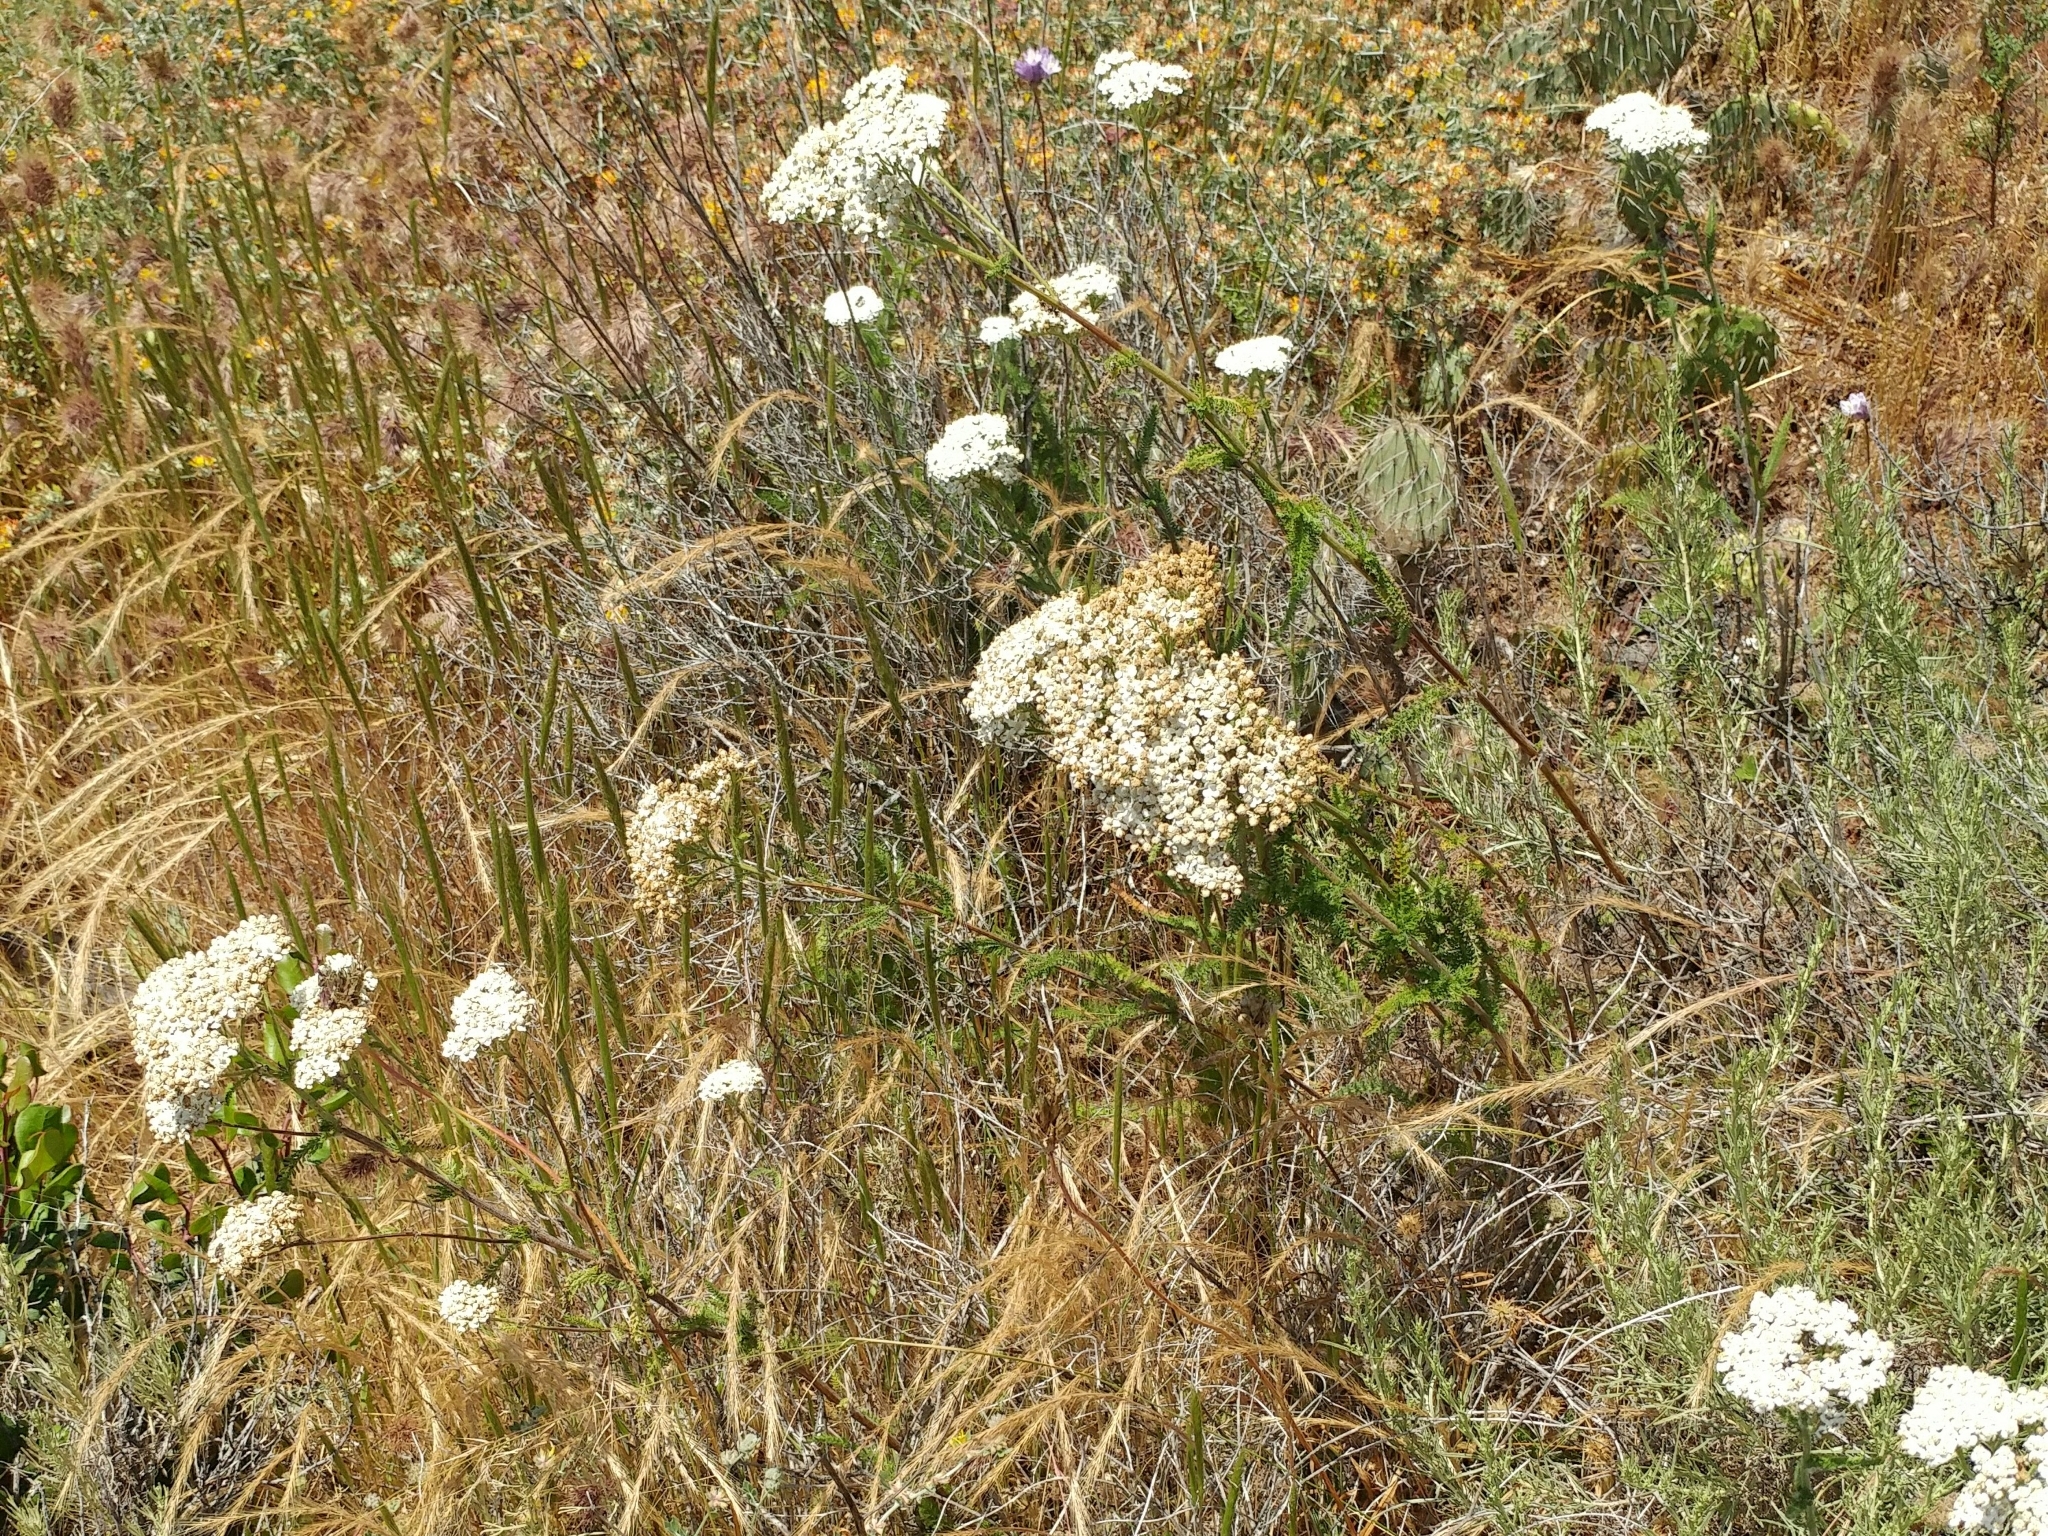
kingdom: Plantae
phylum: Tracheophyta
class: Magnoliopsida
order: Asterales
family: Asteraceae
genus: Achillea
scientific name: Achillea millefolium
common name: Yarrow
